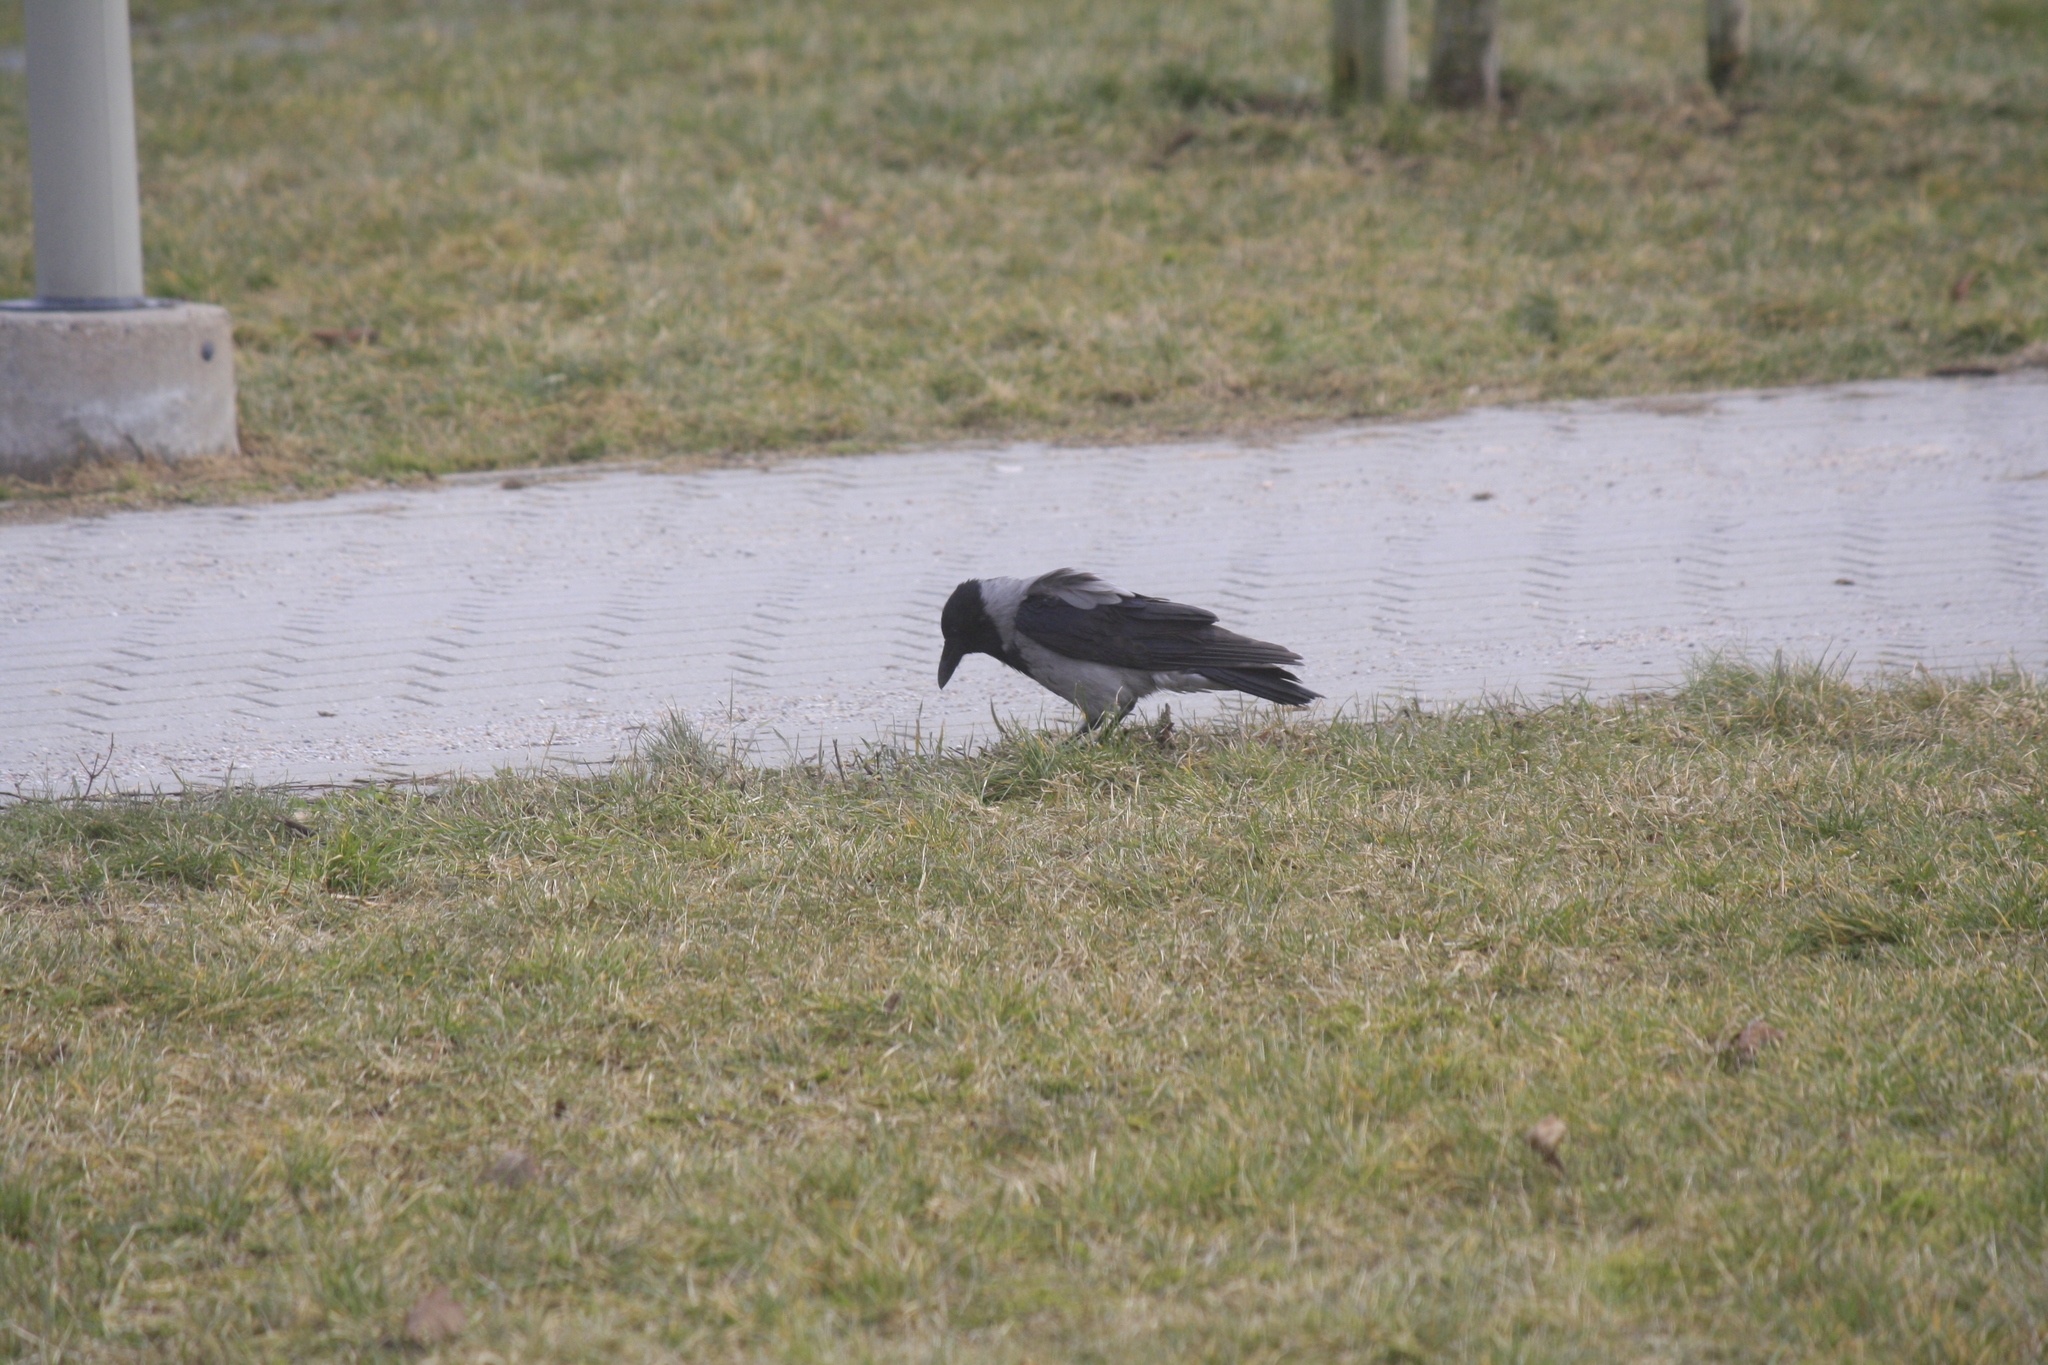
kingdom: Animalia
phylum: Chordata
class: Aves
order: Passeriformes
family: Corvidae
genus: Corvus
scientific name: Corvus cornix
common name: Hooded crow
